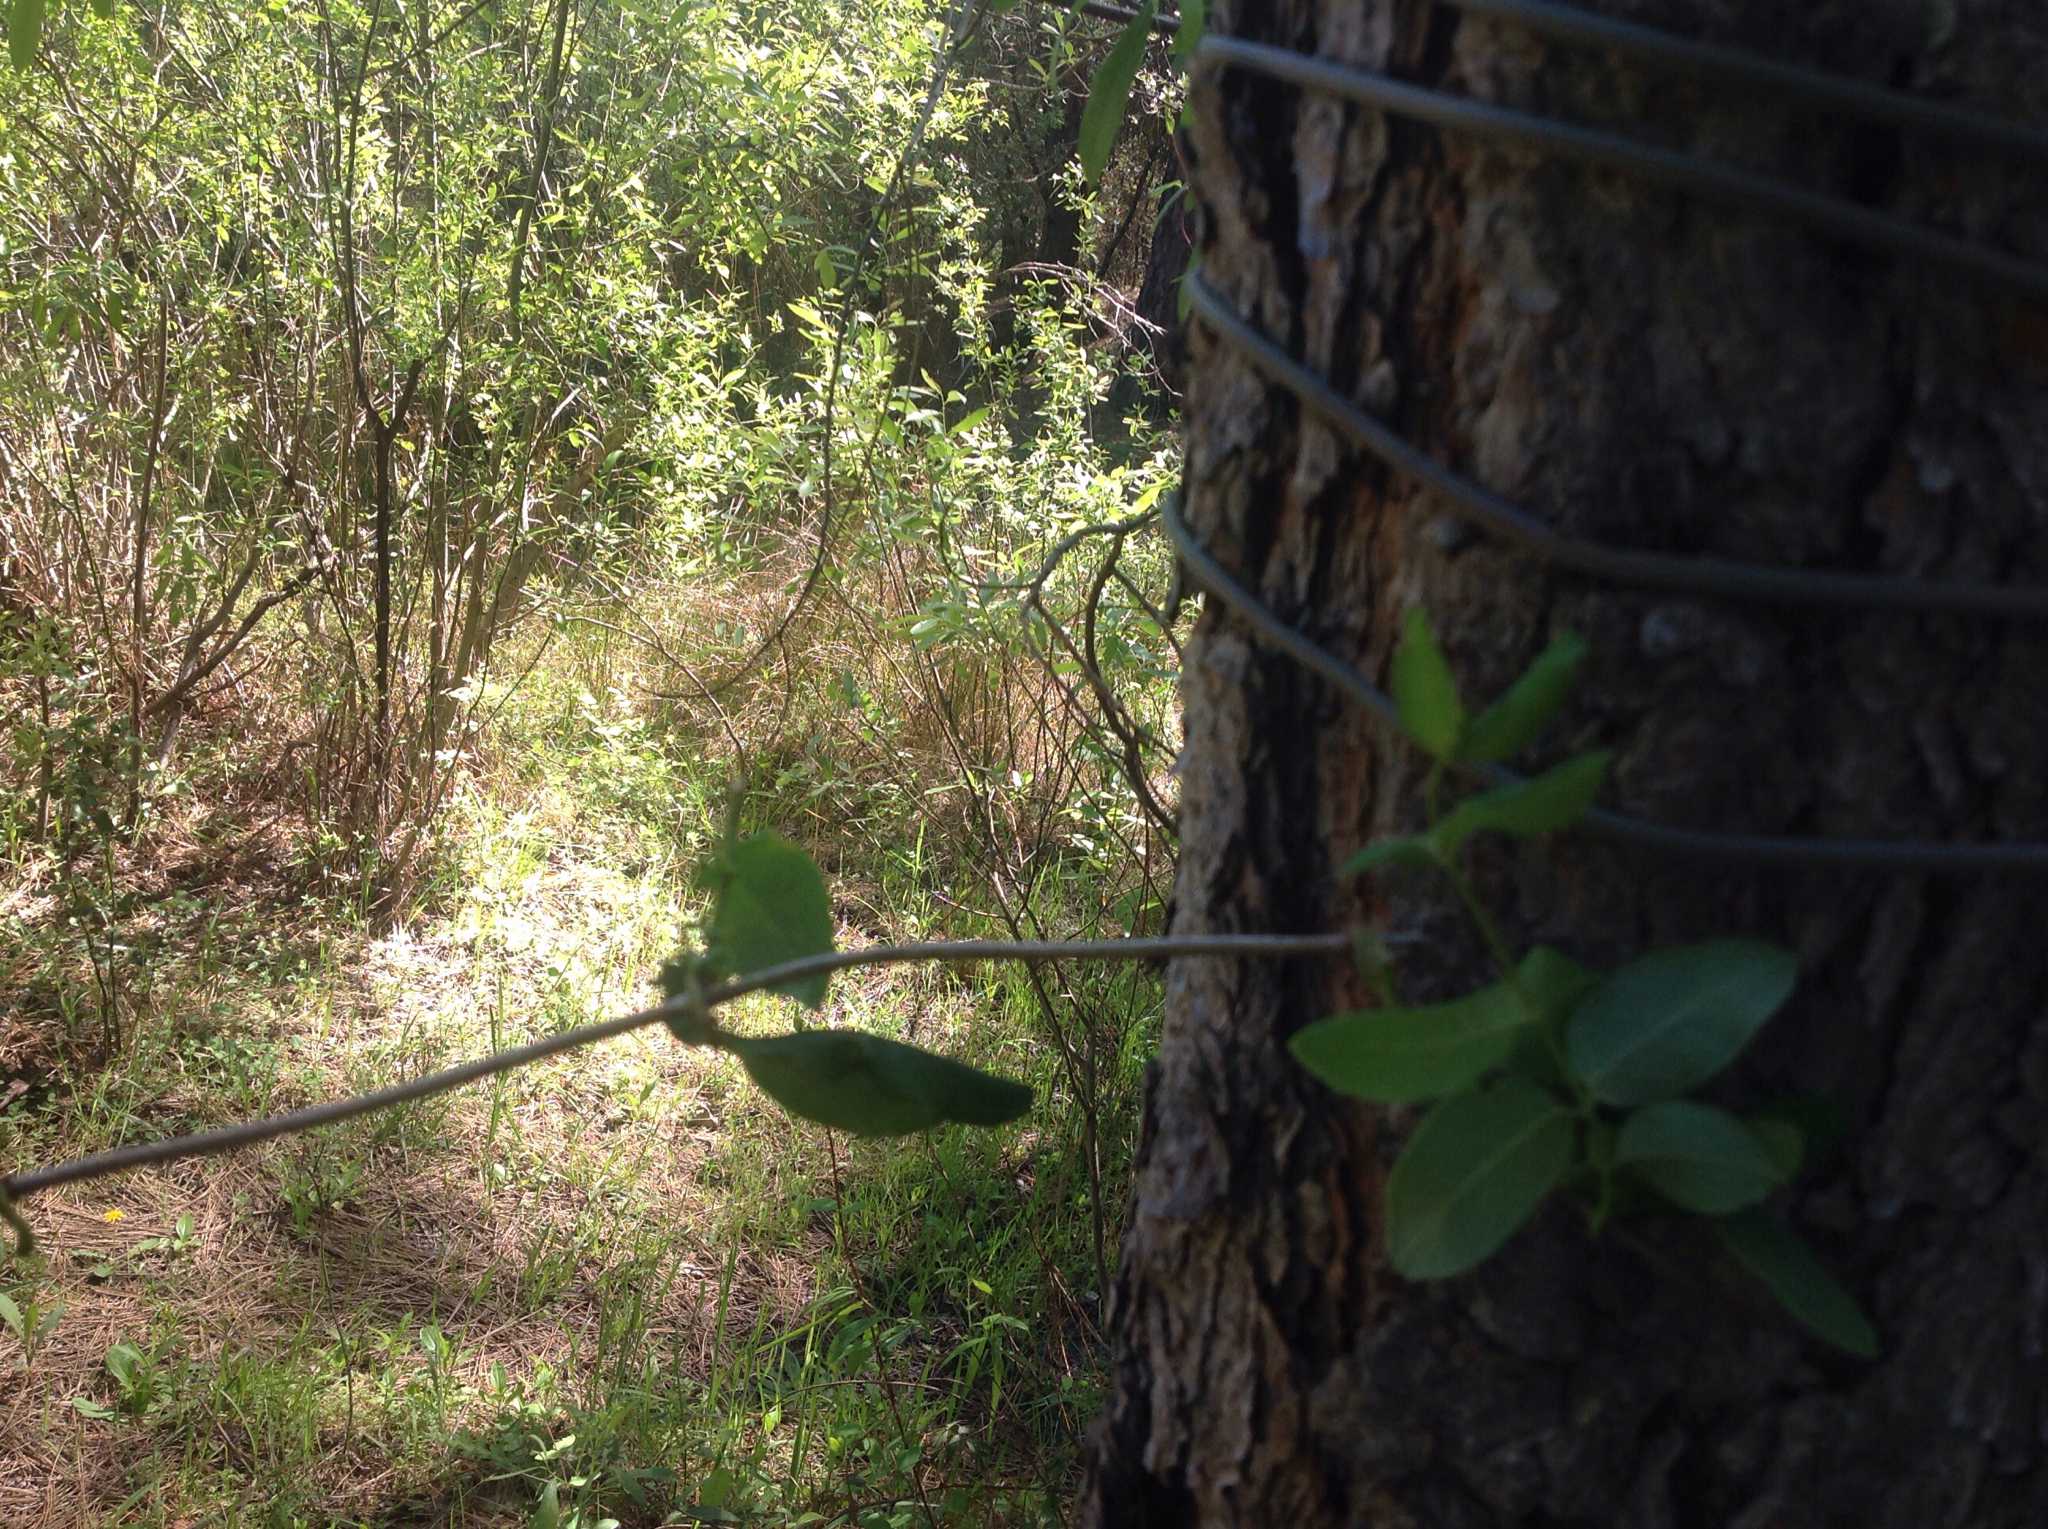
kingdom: Plantae
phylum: Tracheophyta
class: Magnoliopsida
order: Dipsacales
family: Caprifoliaceae
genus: Lonicera
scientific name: Lonicera hispidula
